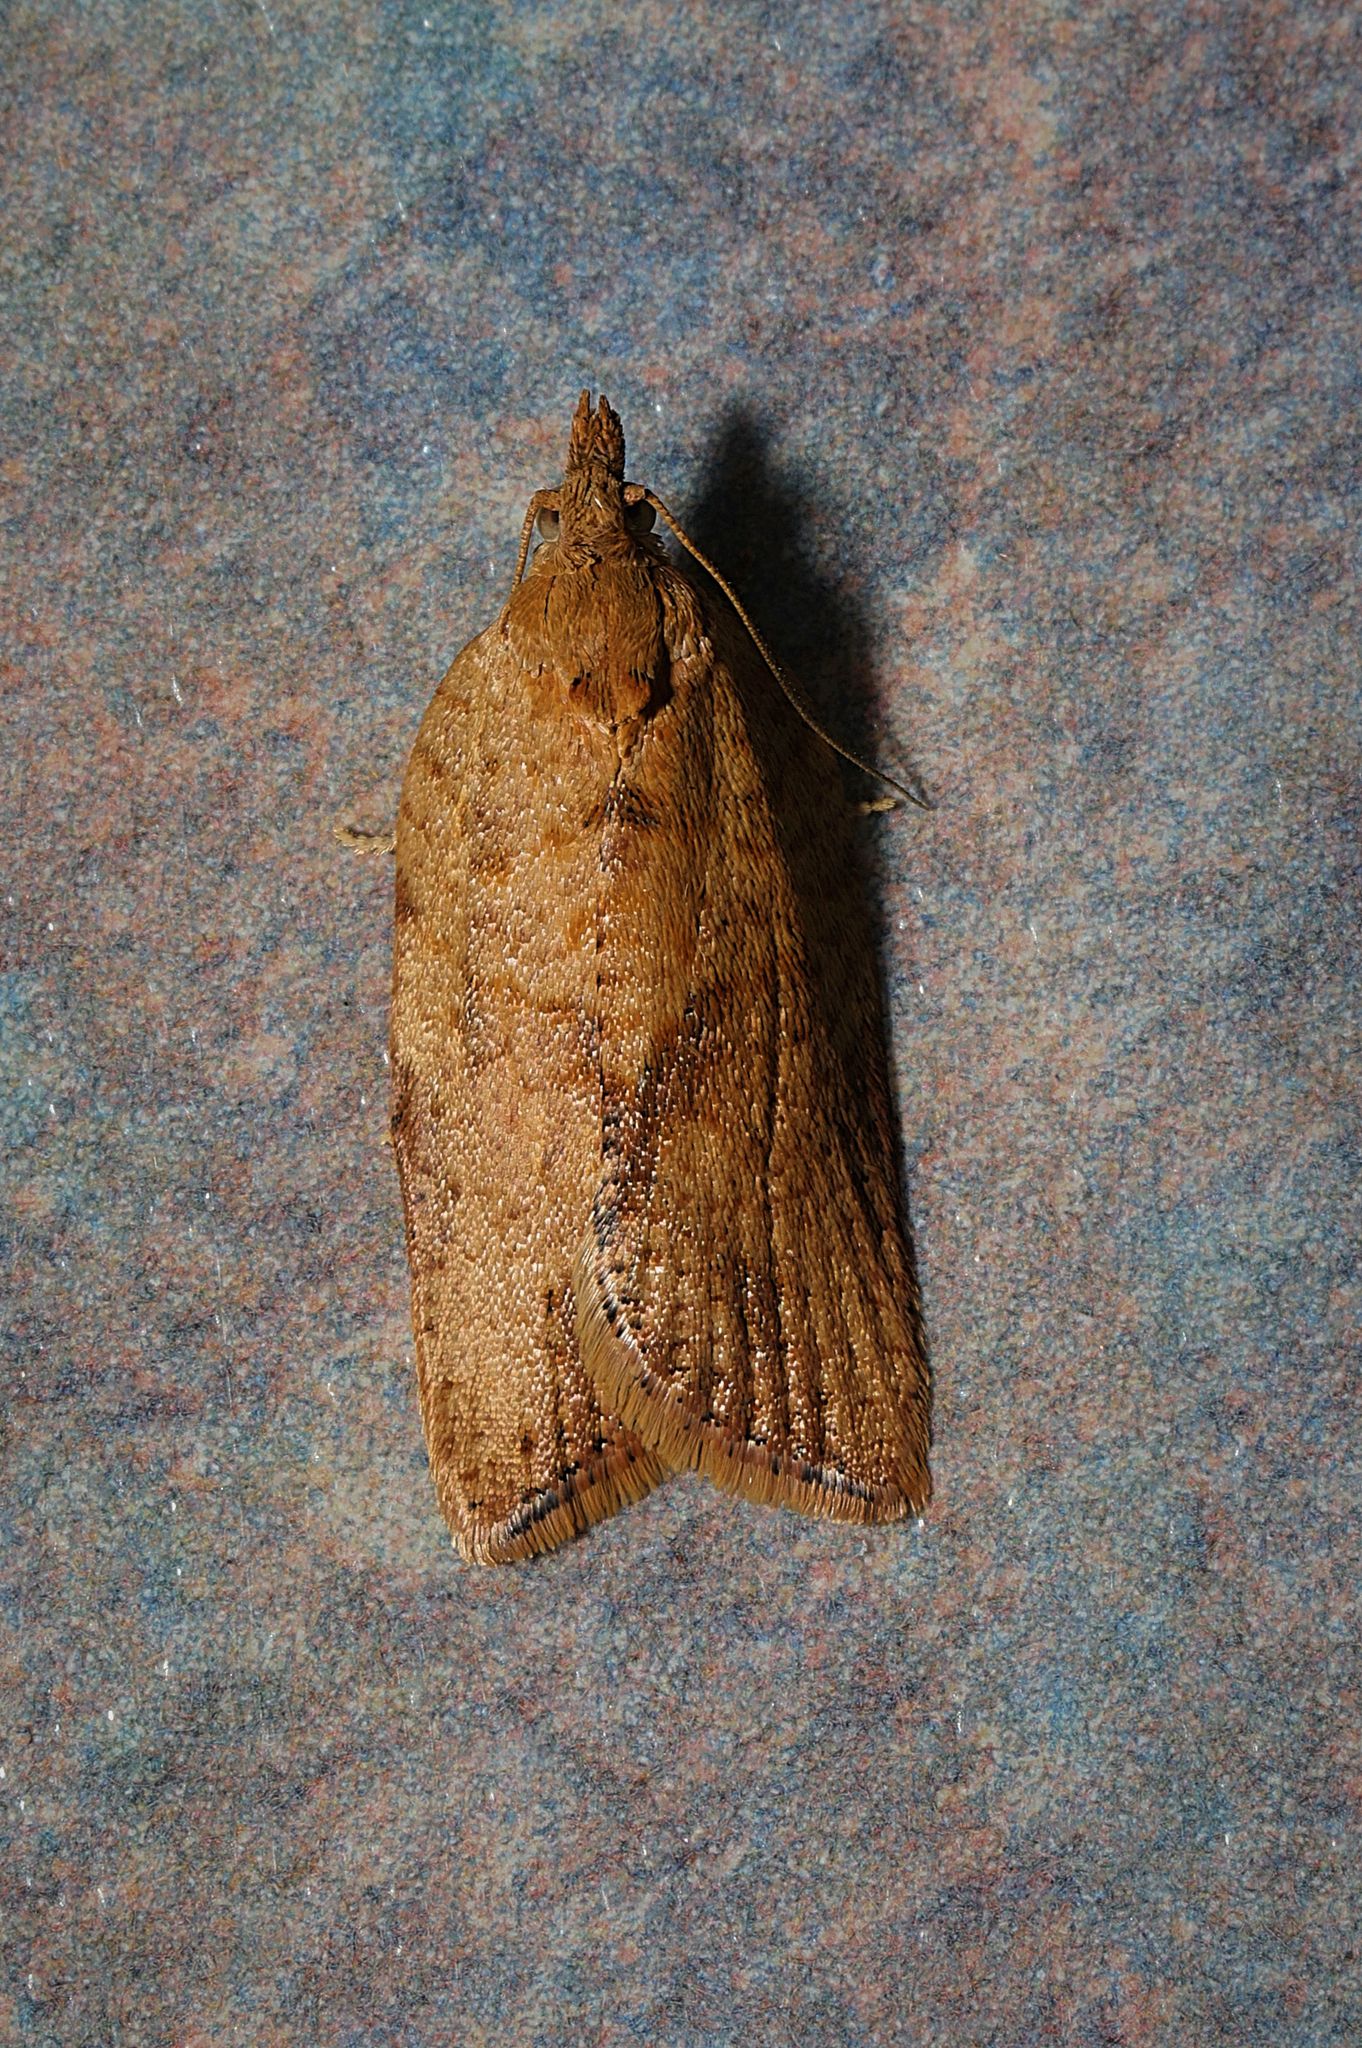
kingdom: Animalia
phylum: Arthropoda
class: Insecta
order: Lepidoptera
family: Tortricidae
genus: Epiphyas
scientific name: Epiphyas postvittana
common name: Light brown apple moth
